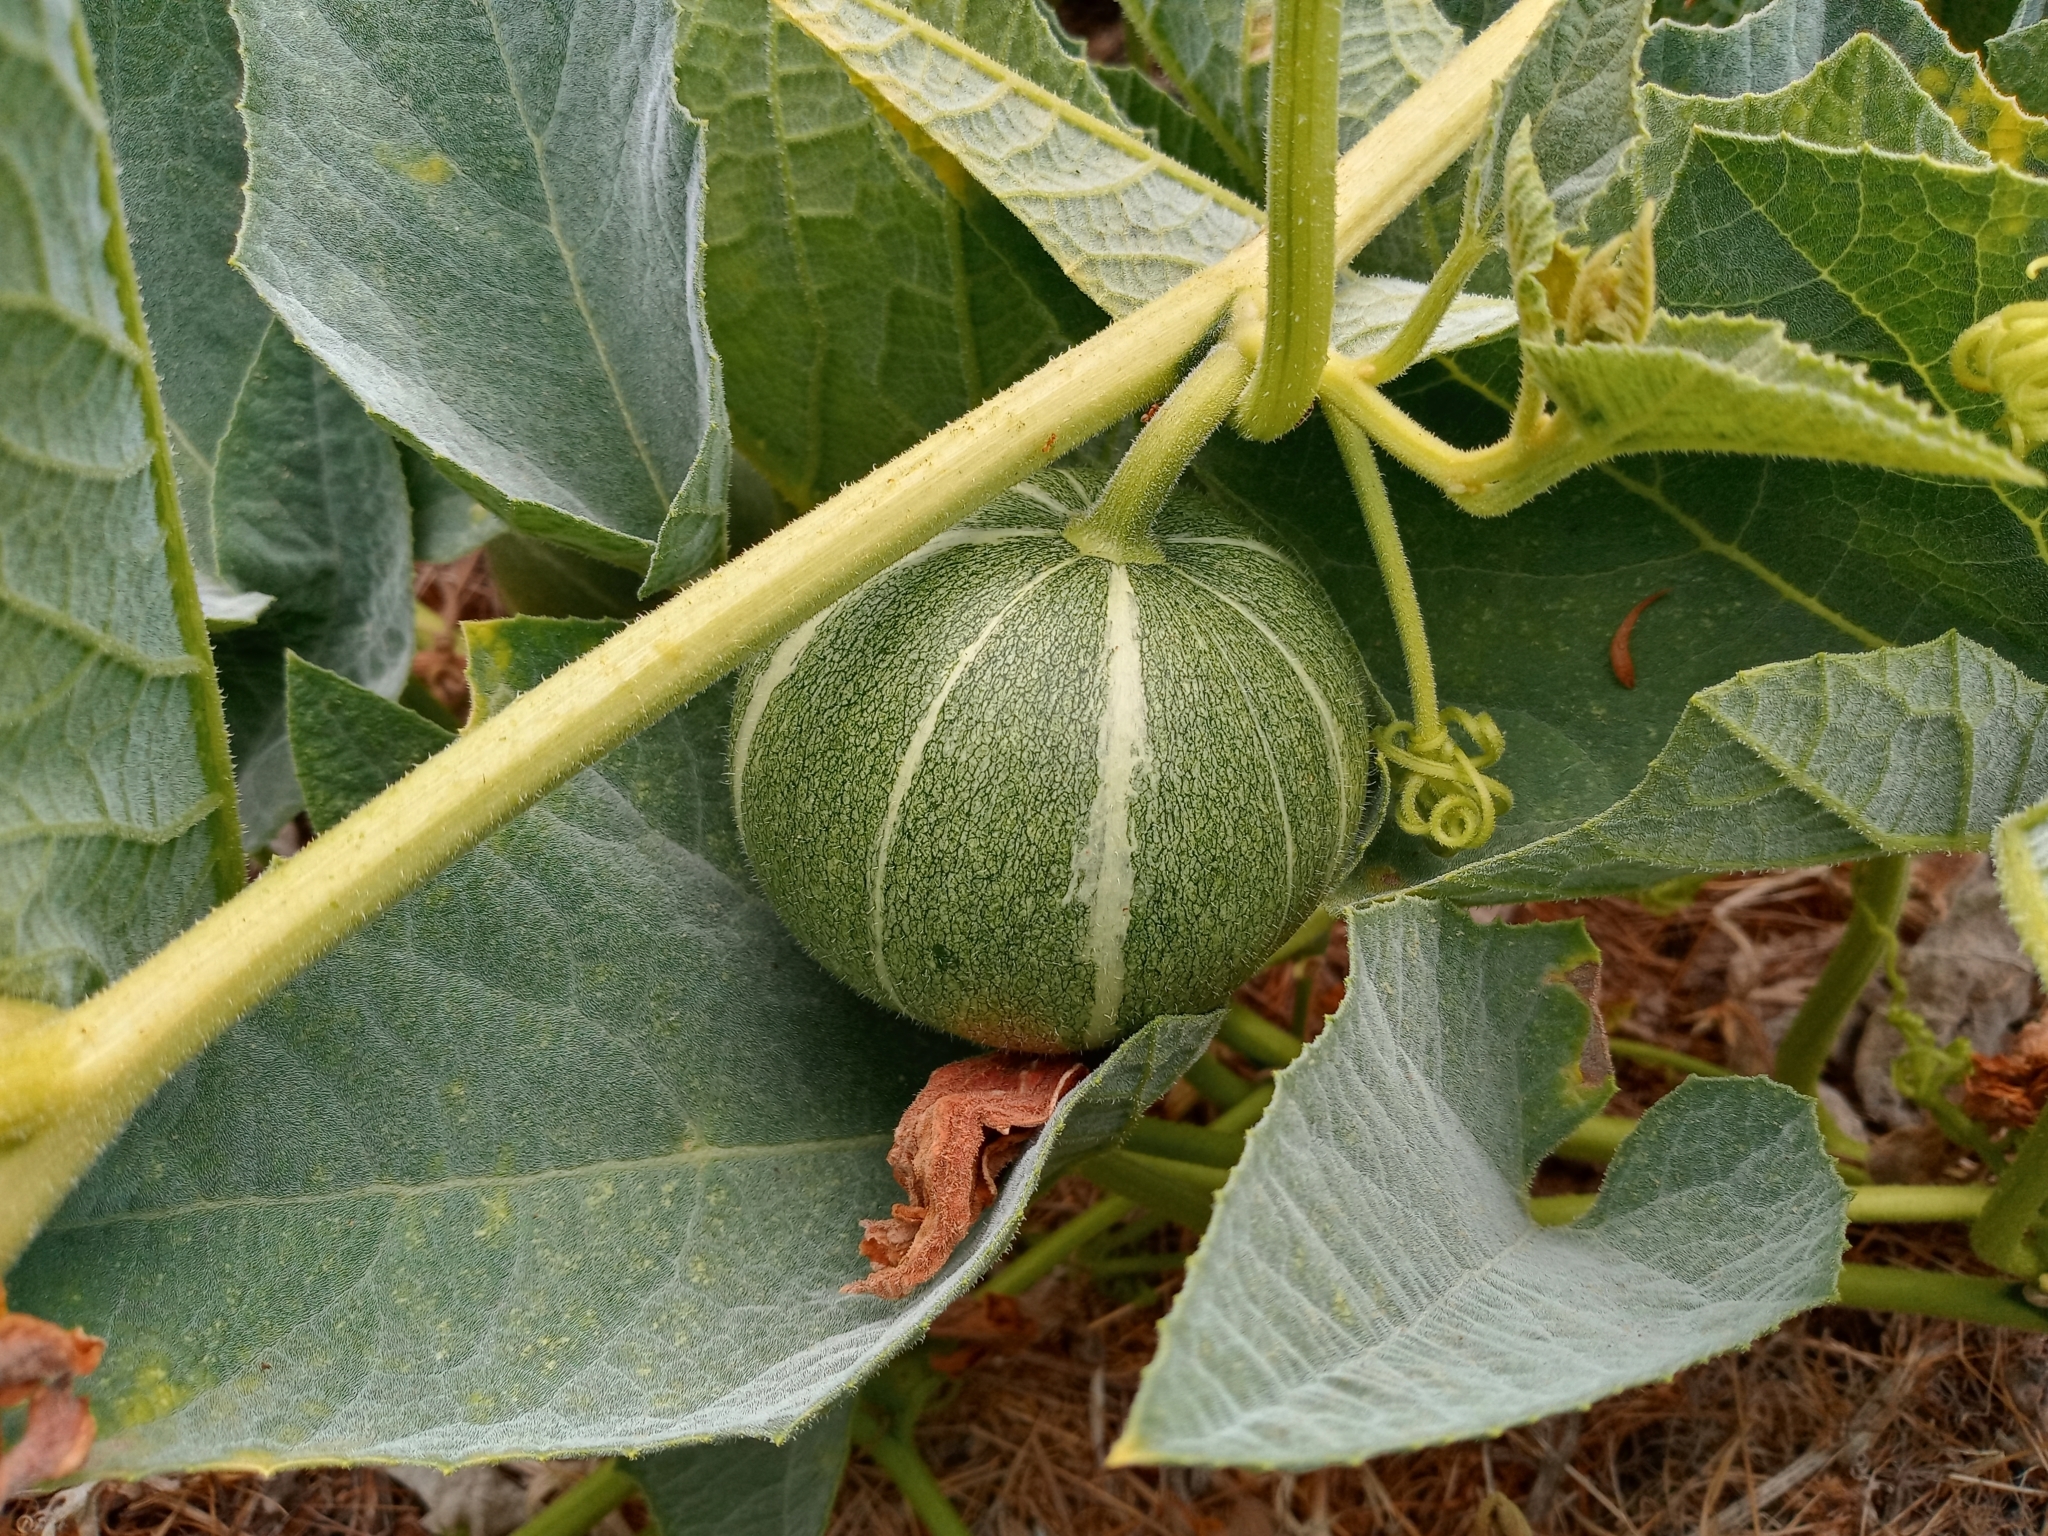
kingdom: Plantae
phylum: Tracheophyta
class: Magnoliopsida
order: Cucurbitales
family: Cucurbitaceae
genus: Cucurbita
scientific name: Cucurbita foetidissima
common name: Buffalo gourd
